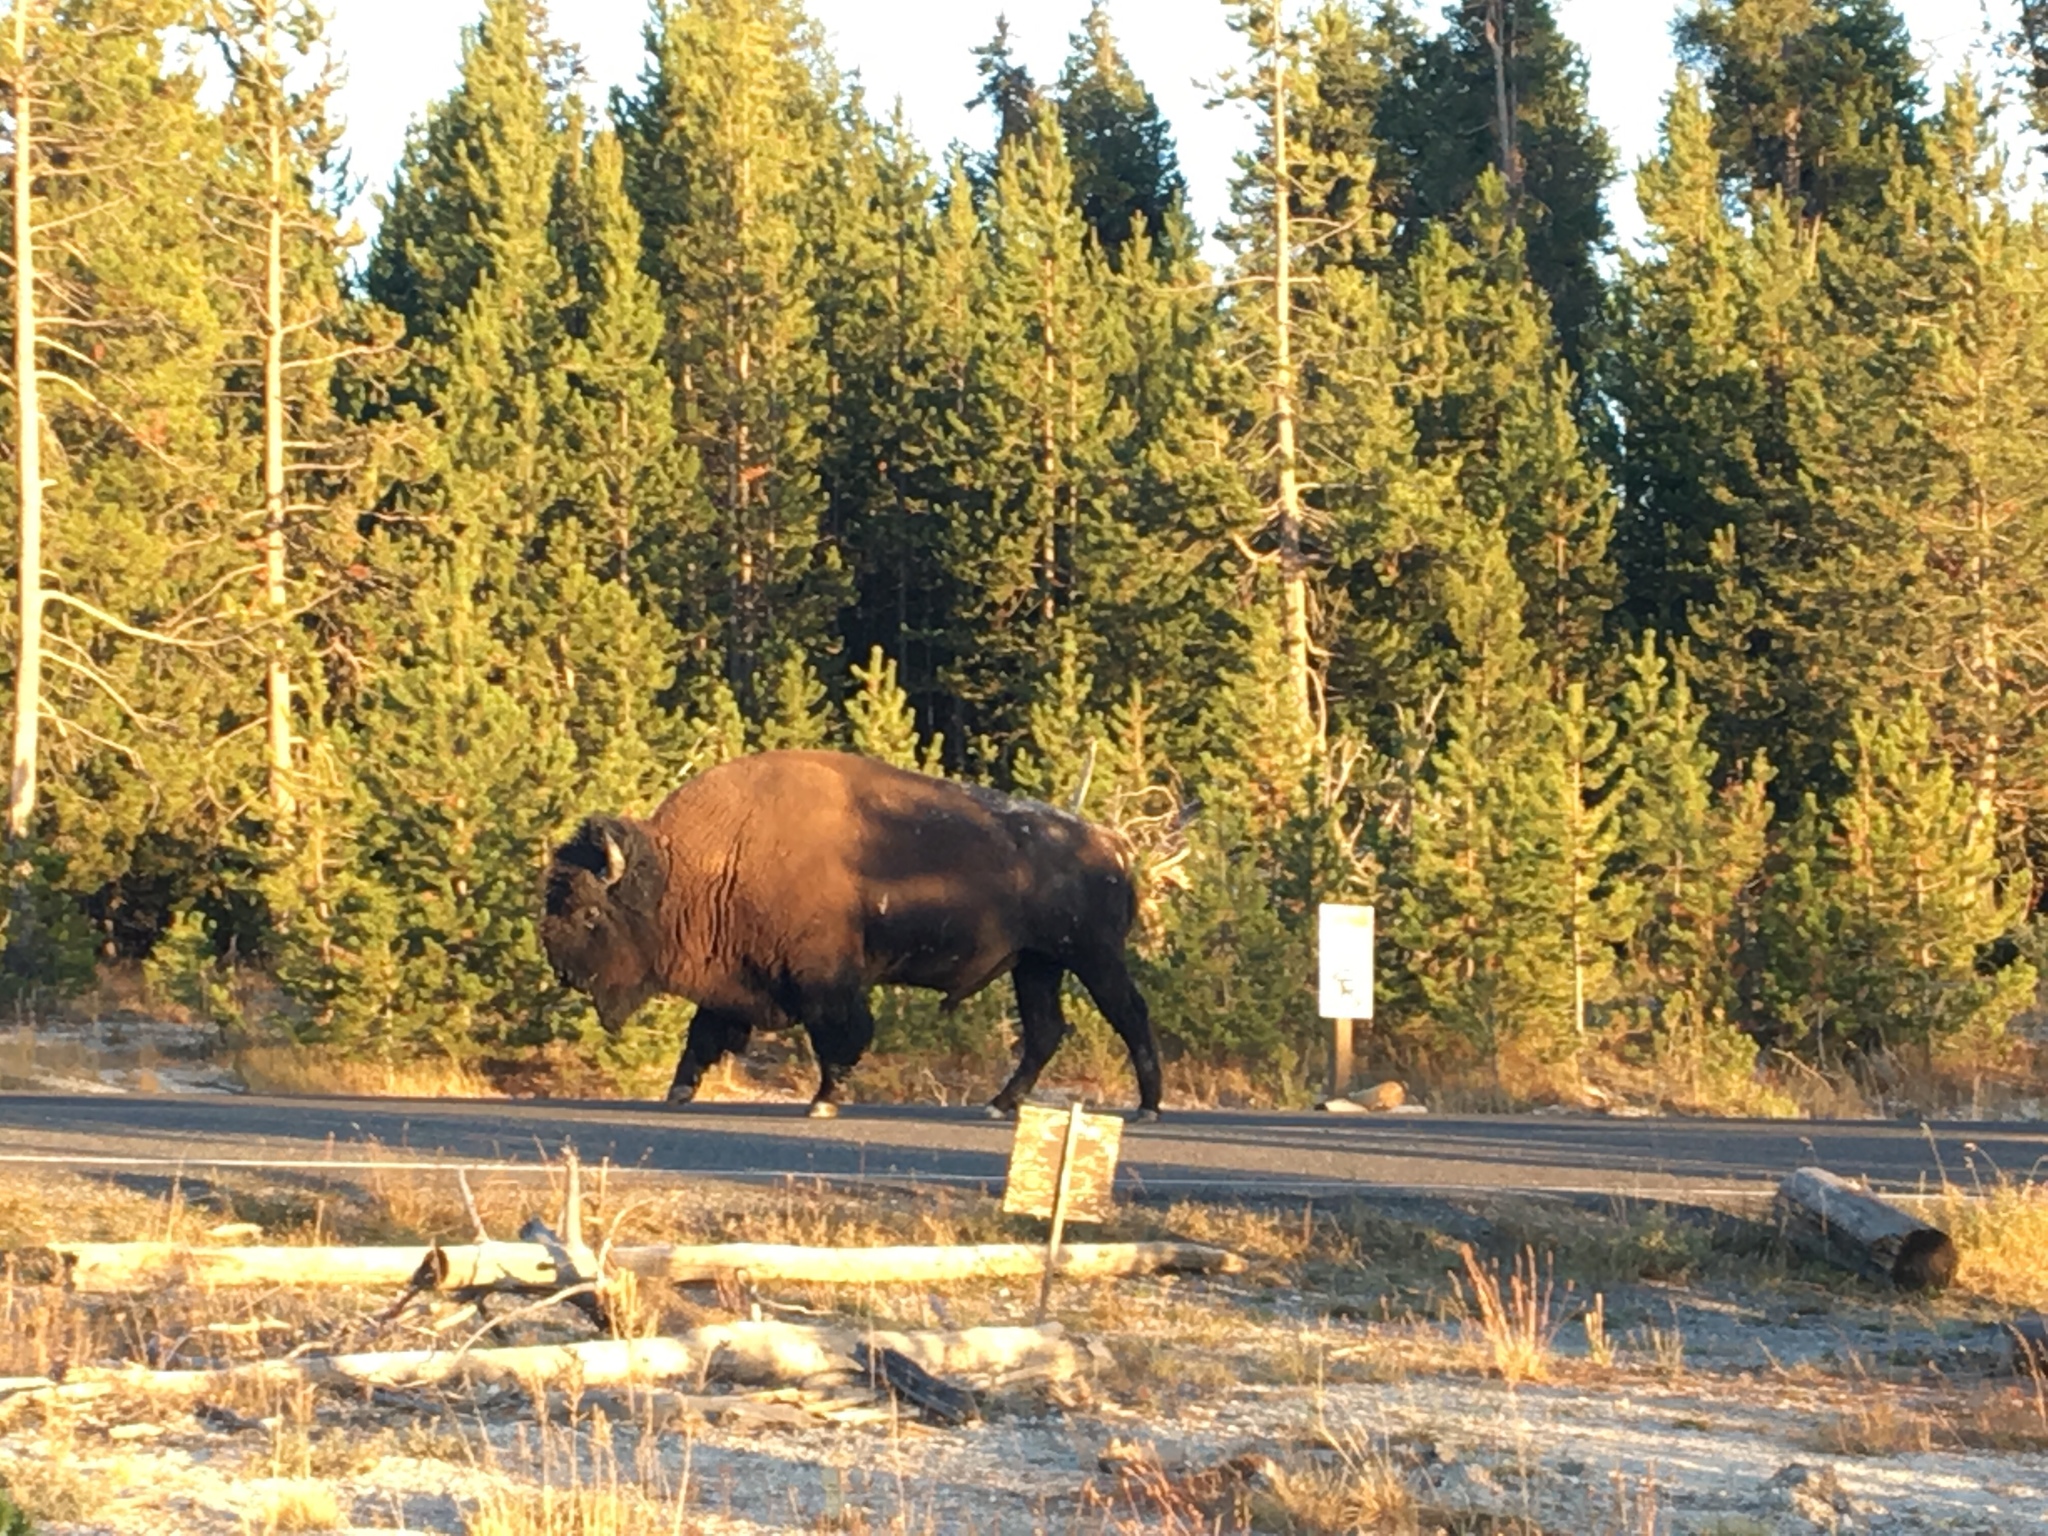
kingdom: Animalia
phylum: Chordata
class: Mammalia
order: Artiodactyla
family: Bovidae
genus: Bison
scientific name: Bison bison
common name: American bison
